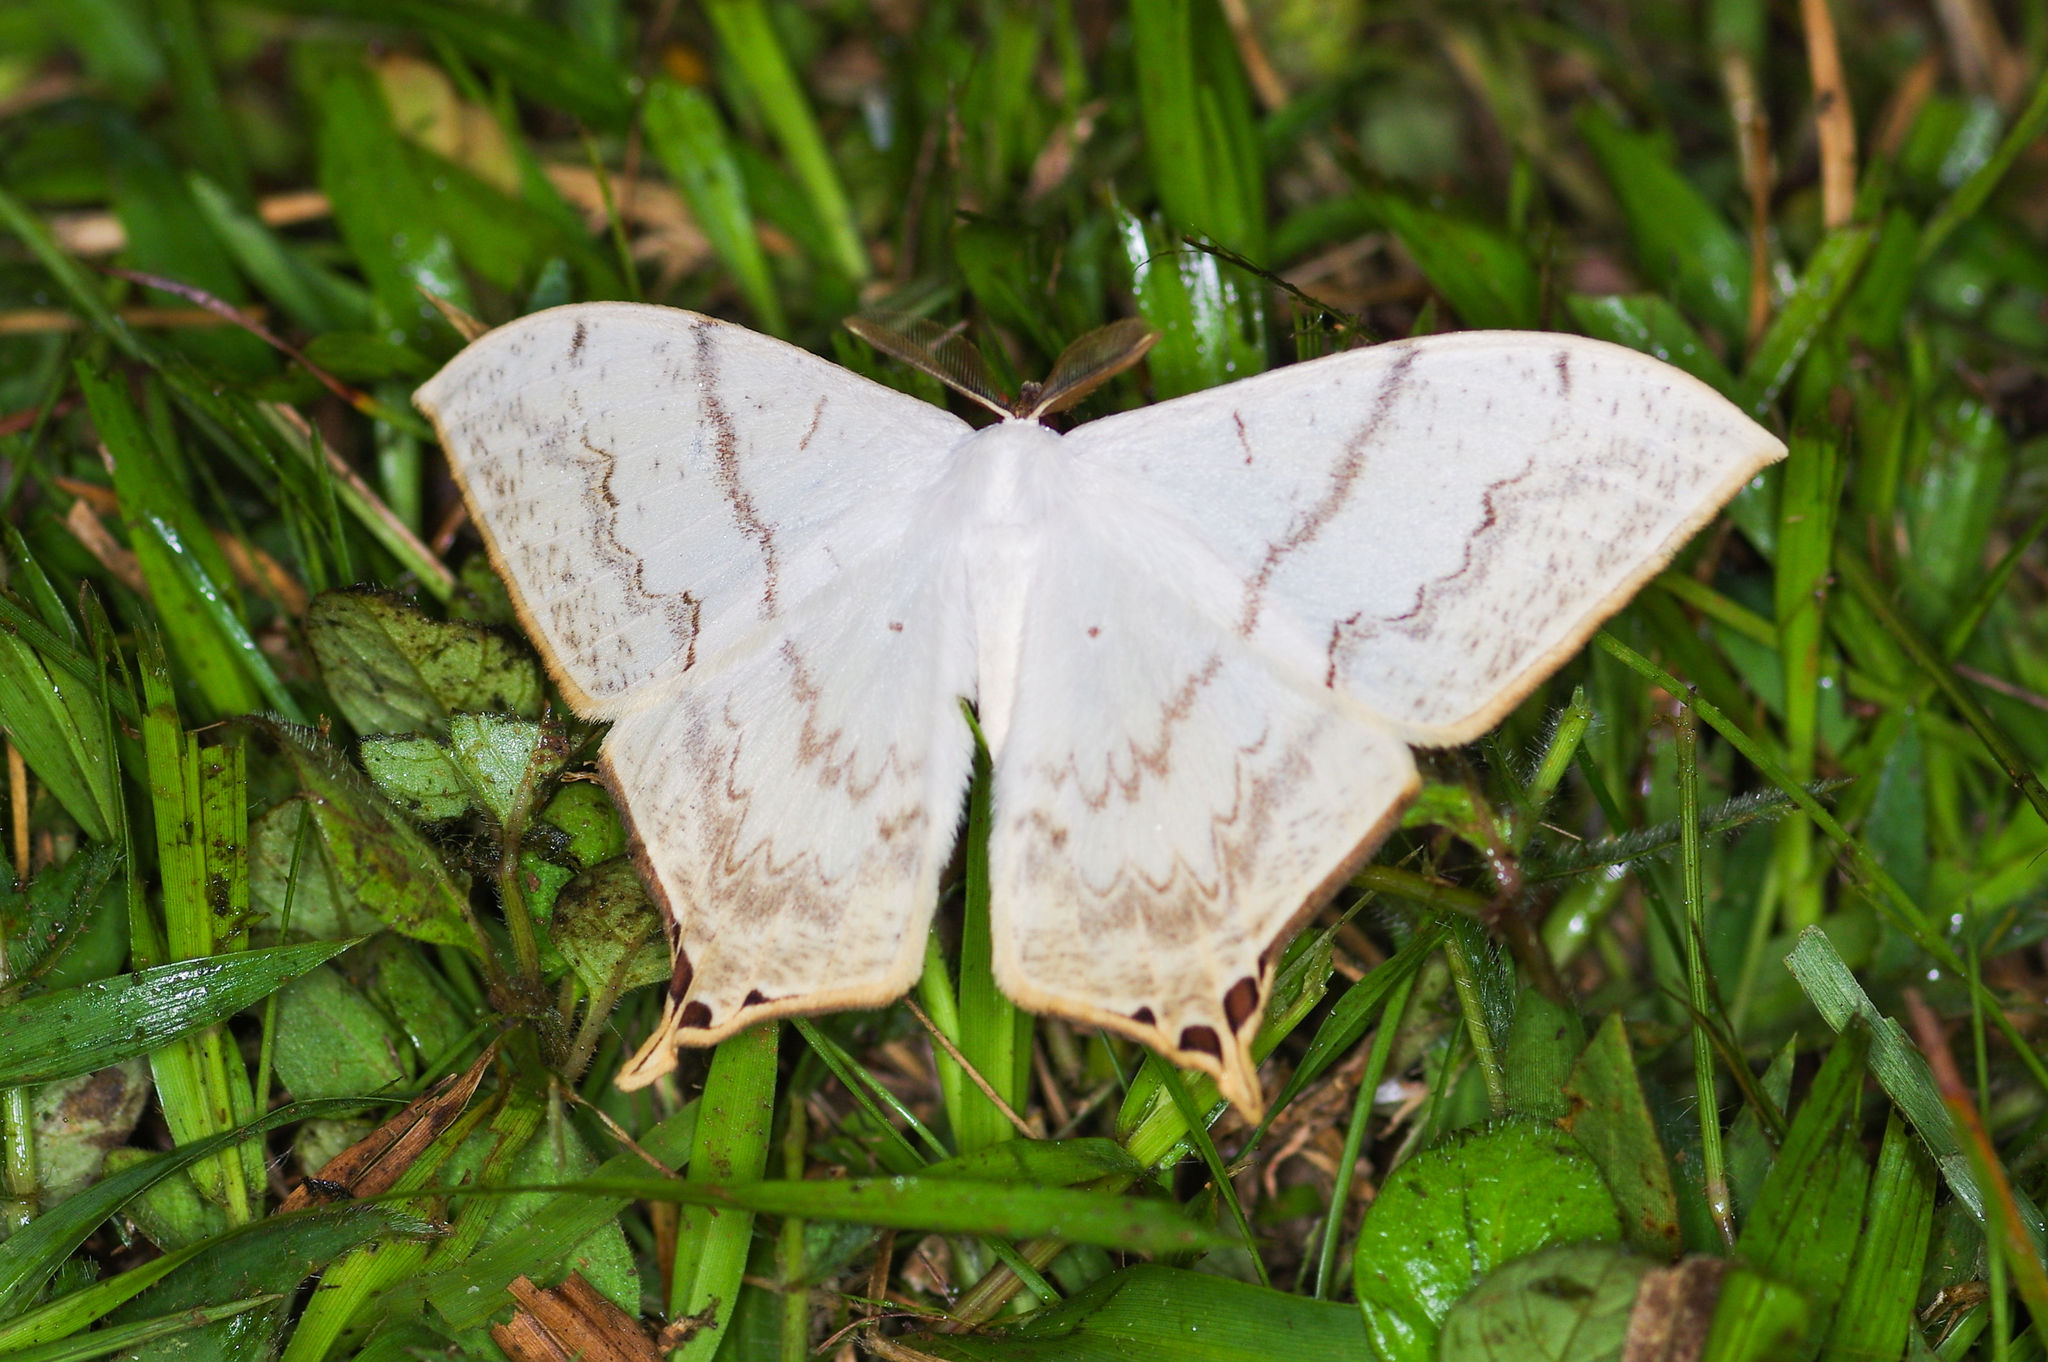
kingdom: Animalia
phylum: Arthropoda
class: Insecta
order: Lepidoptera
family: Saturniidae
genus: Therinia
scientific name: Therinia lactucina
